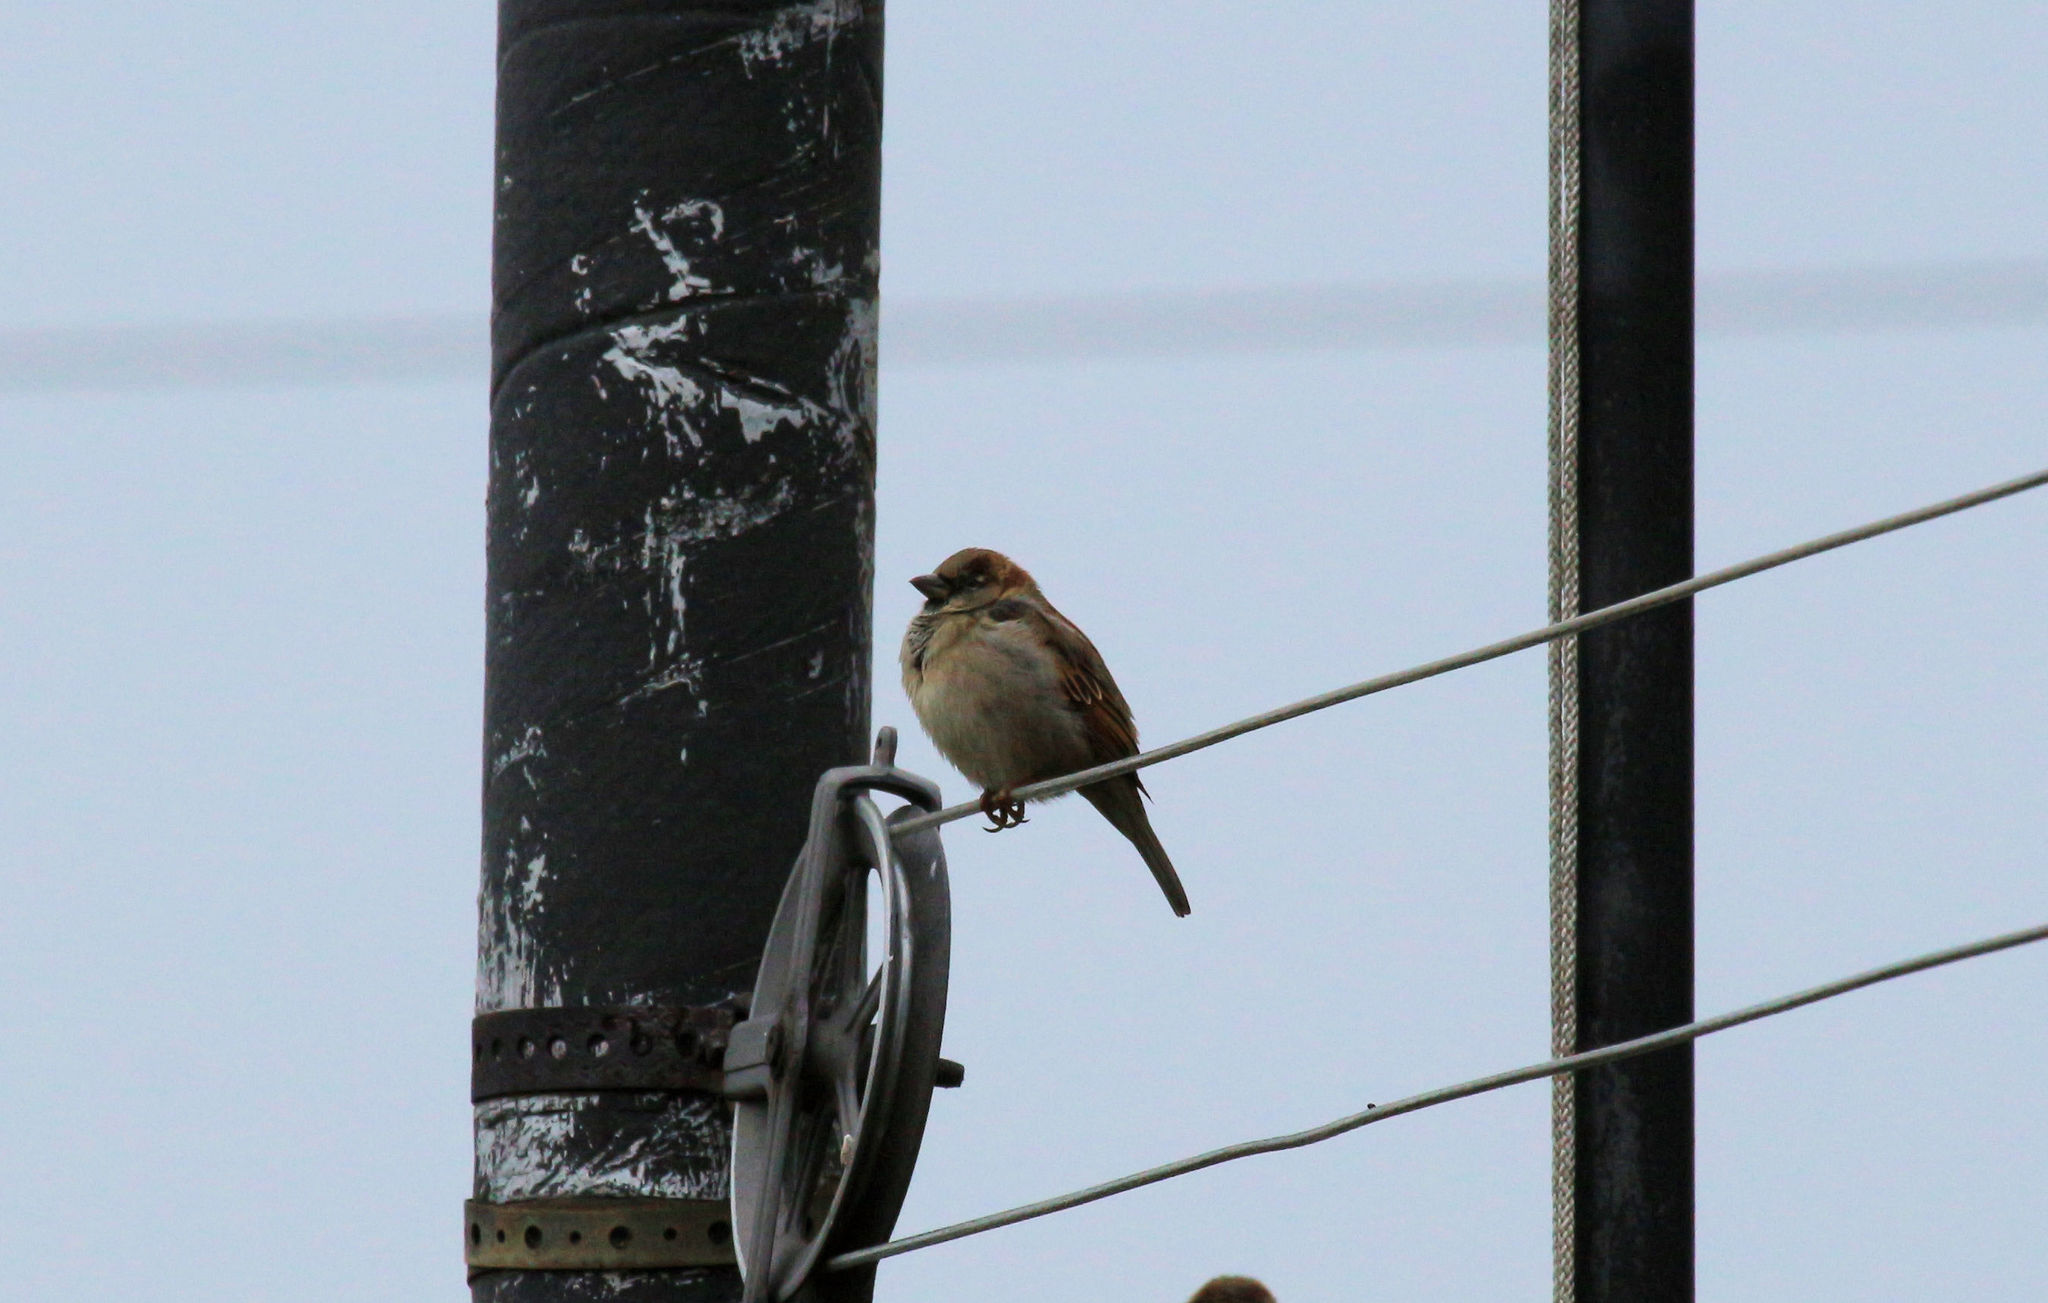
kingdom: Animalia
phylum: Chordata
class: Aves
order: Passeriformes
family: Passeridae
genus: Passer
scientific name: Passer domesticus
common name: House sparrow
